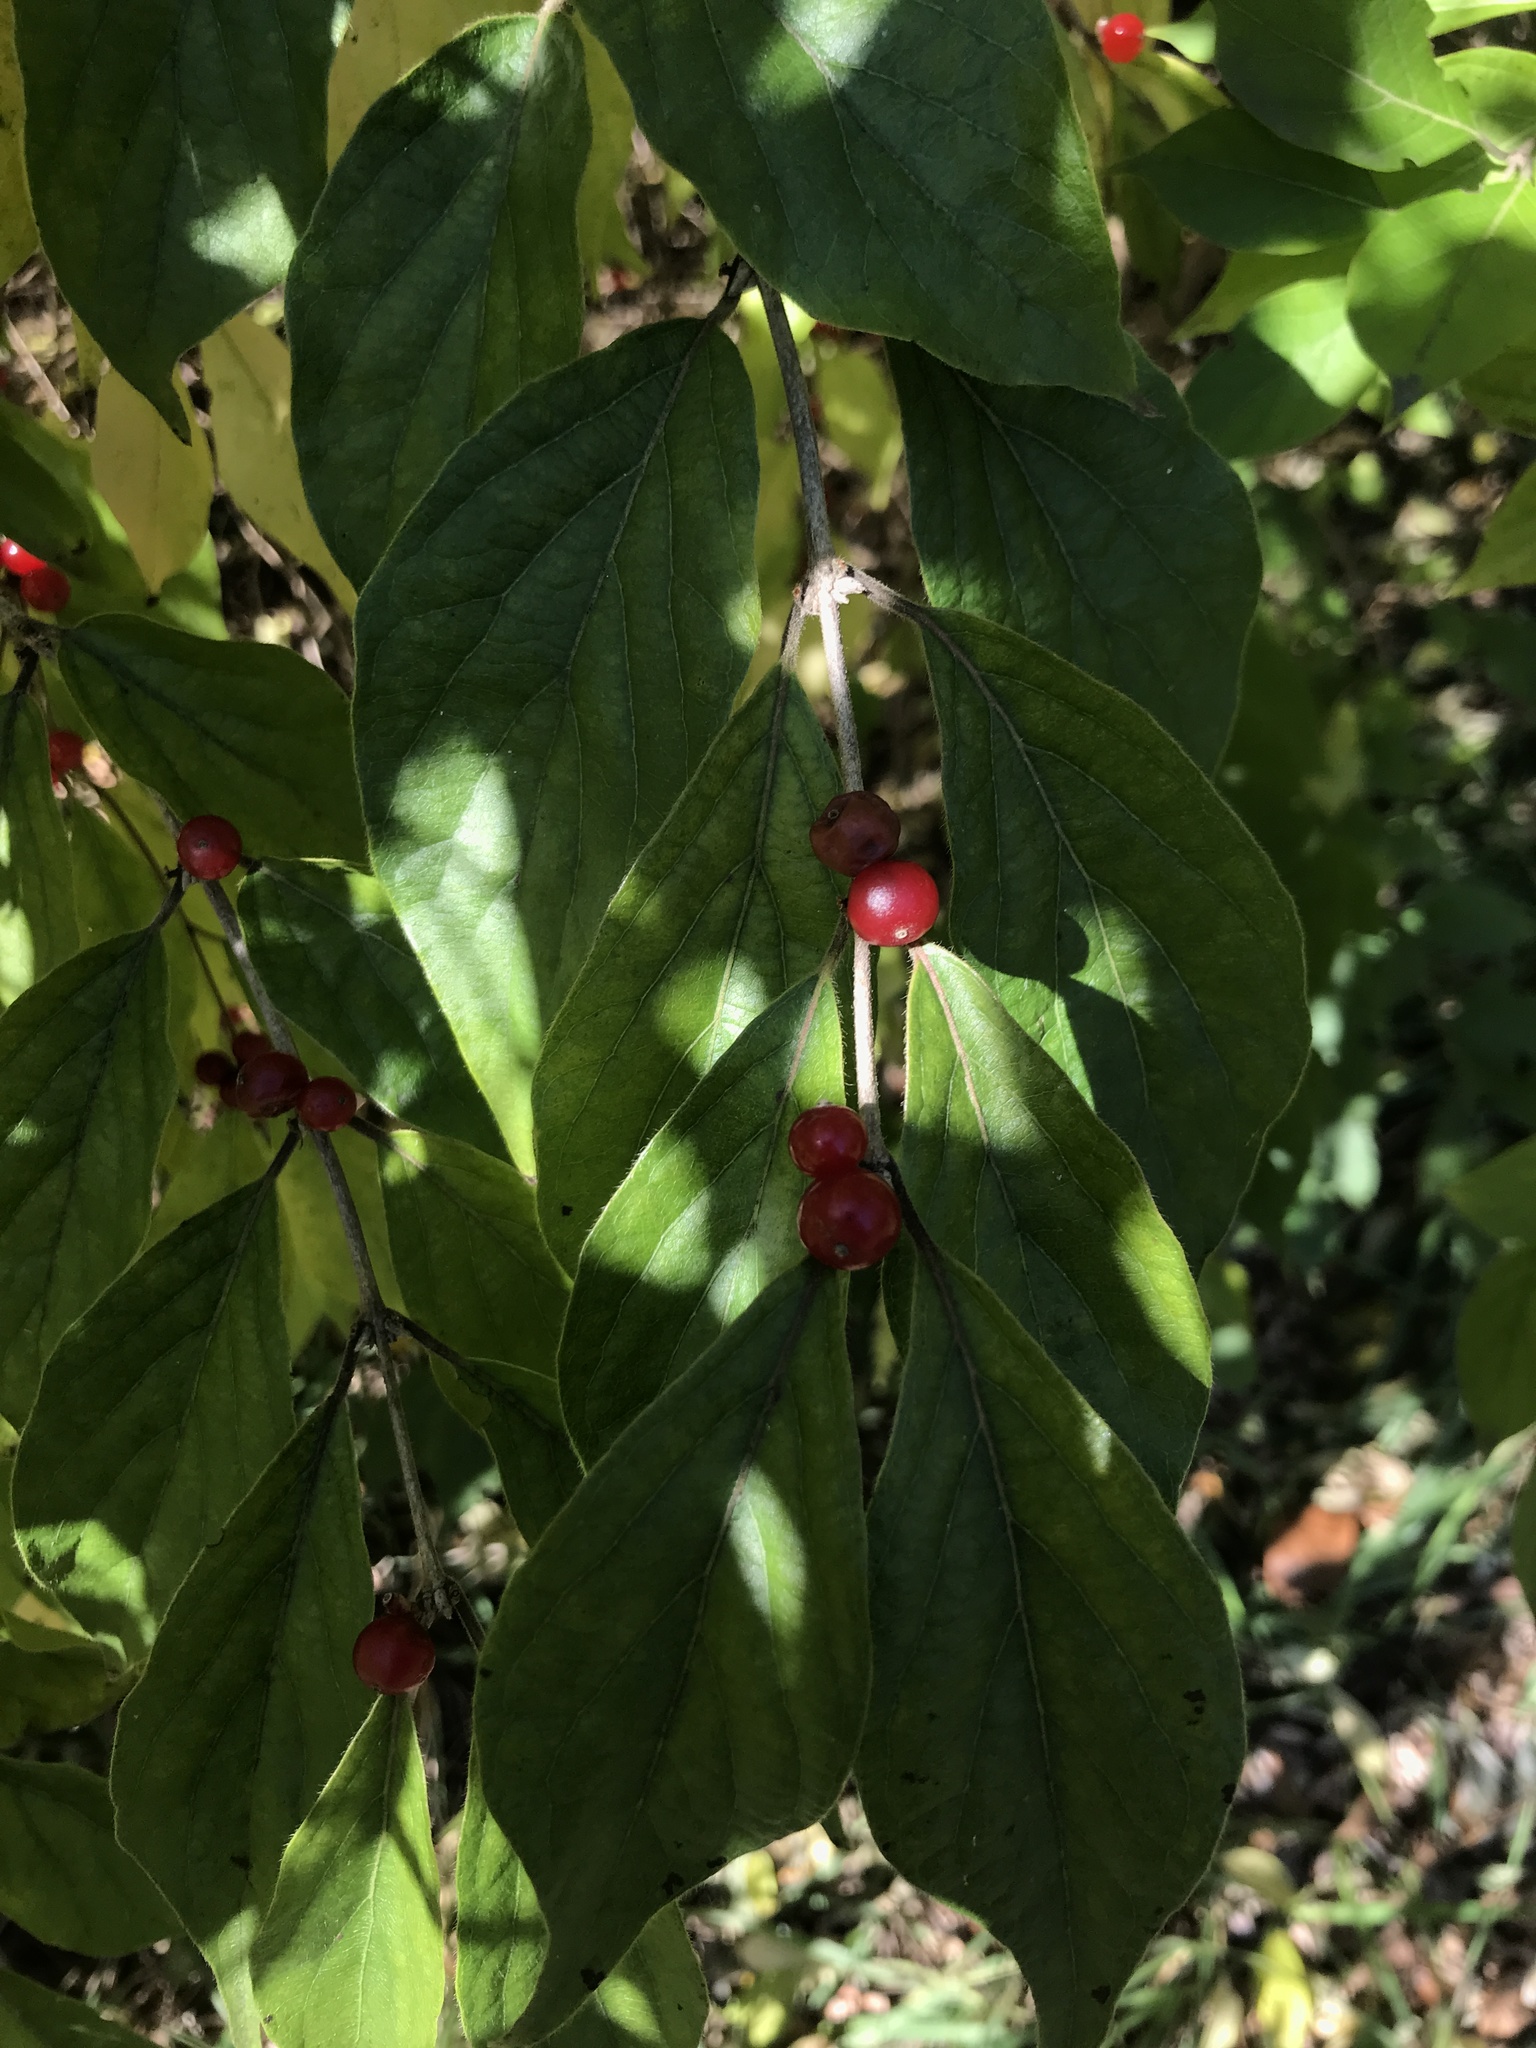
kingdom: Plantae
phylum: Tracheophyta
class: Magnoliopsida
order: Dipsacales
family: Caprifoliaceae
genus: Lonicera
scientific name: Lonicera maackii
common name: Amur honeysuckle
